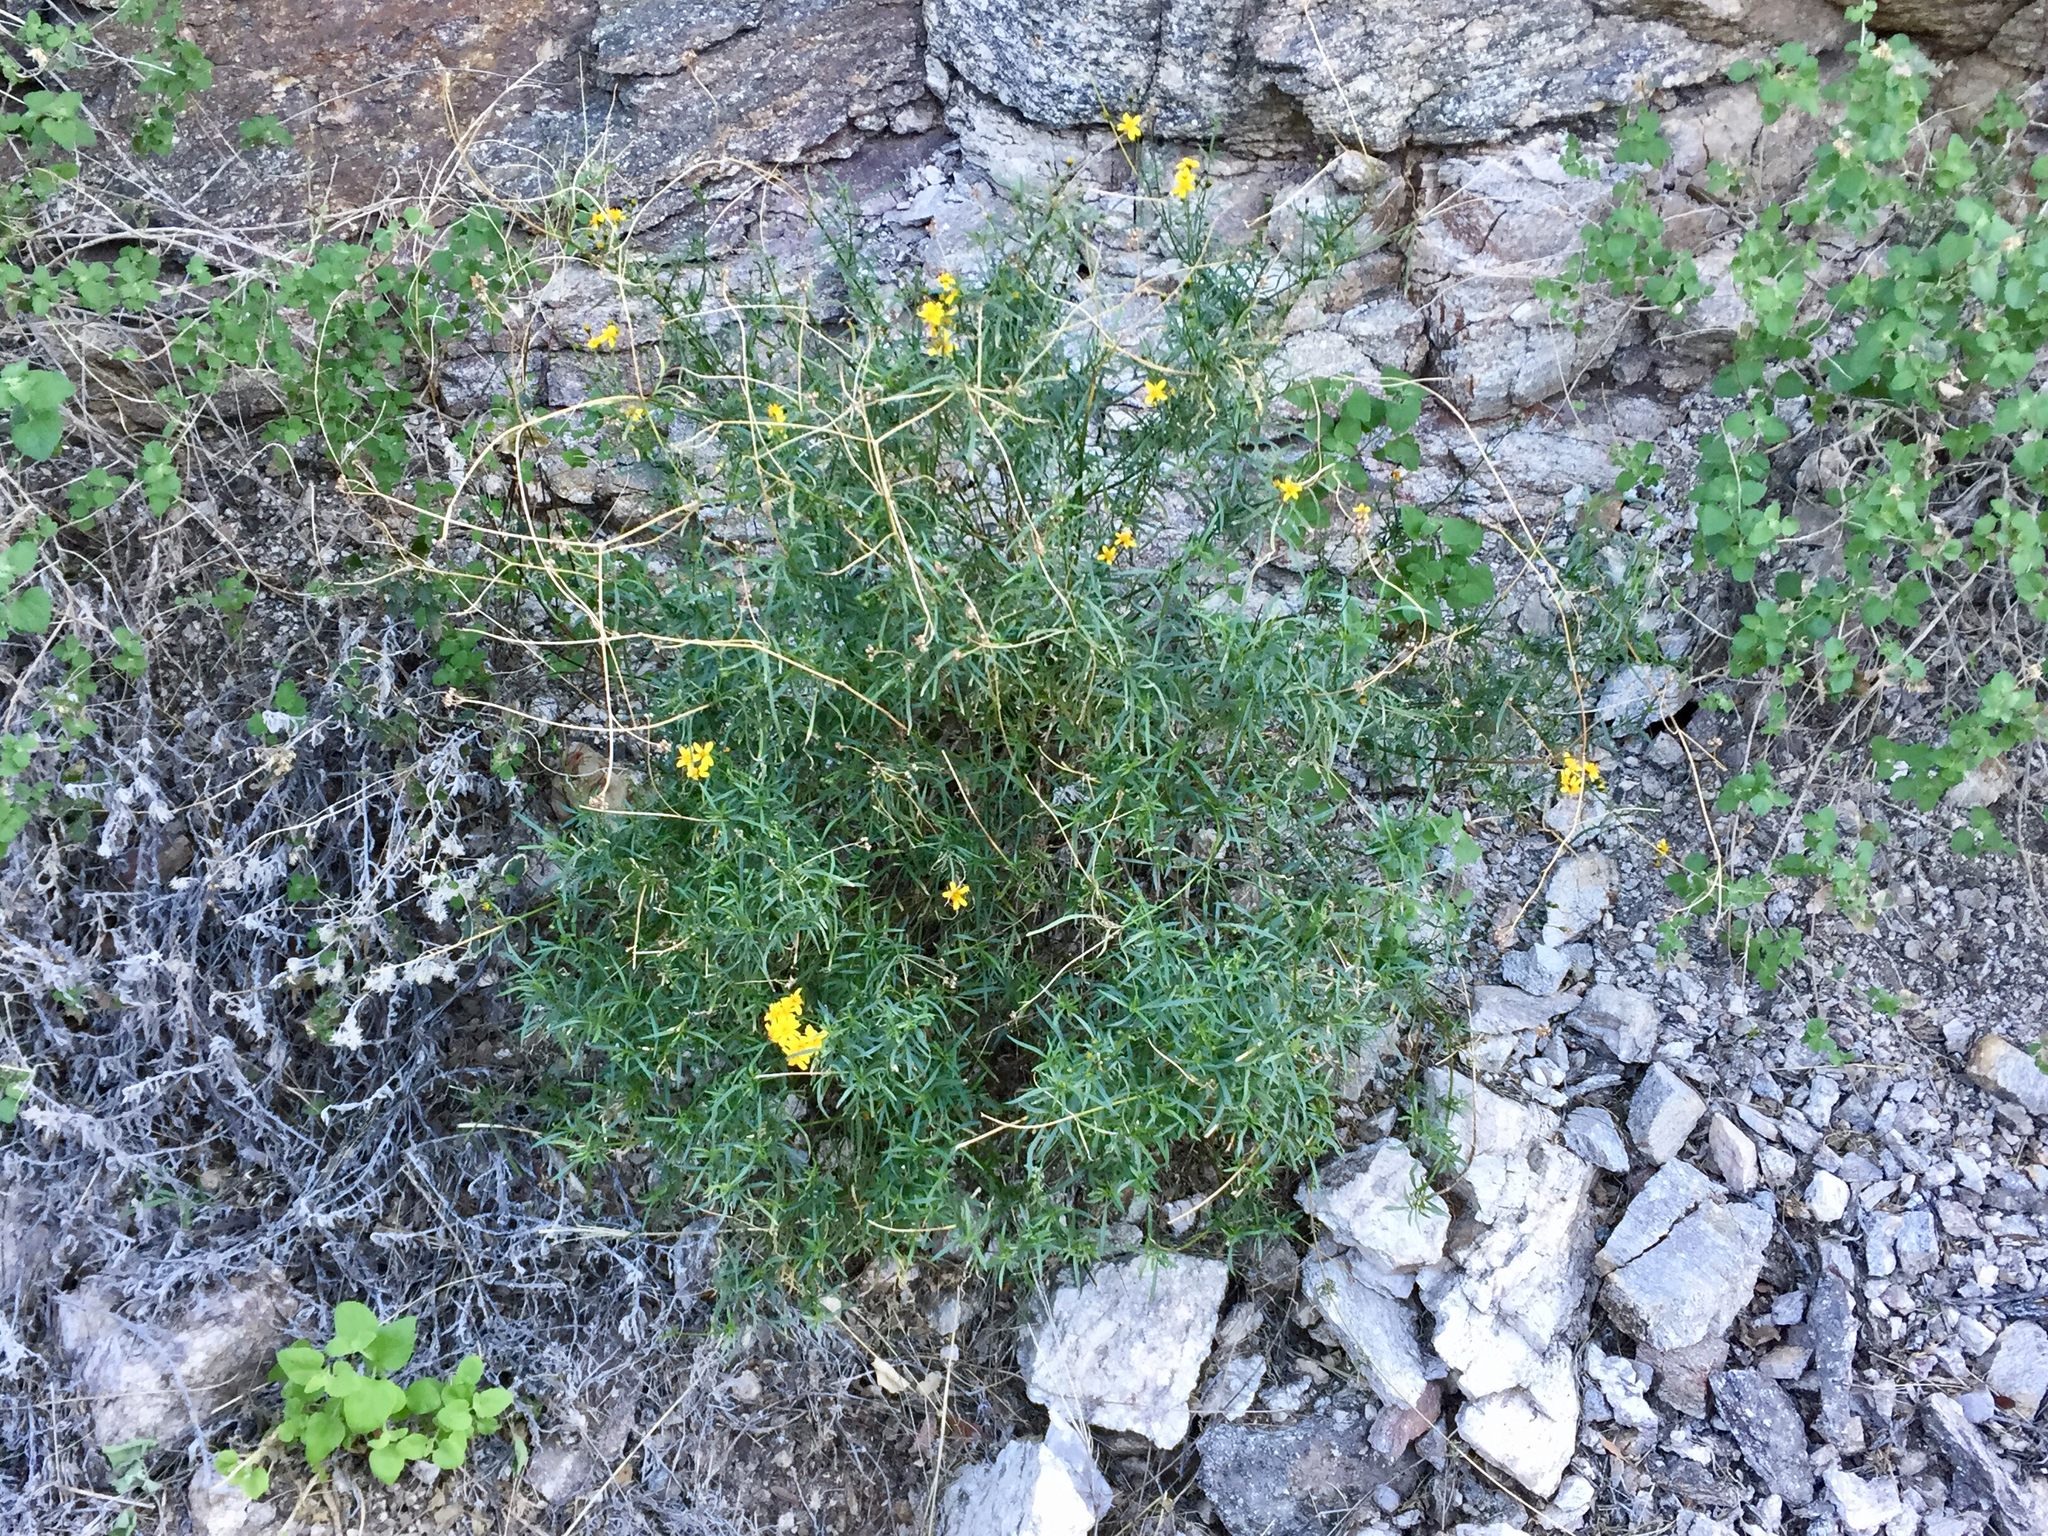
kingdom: Plantae
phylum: Tracheophyta
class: Magnoliopsida
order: Asterales
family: Asteraceae
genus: Trixis
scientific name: Trixis californica
